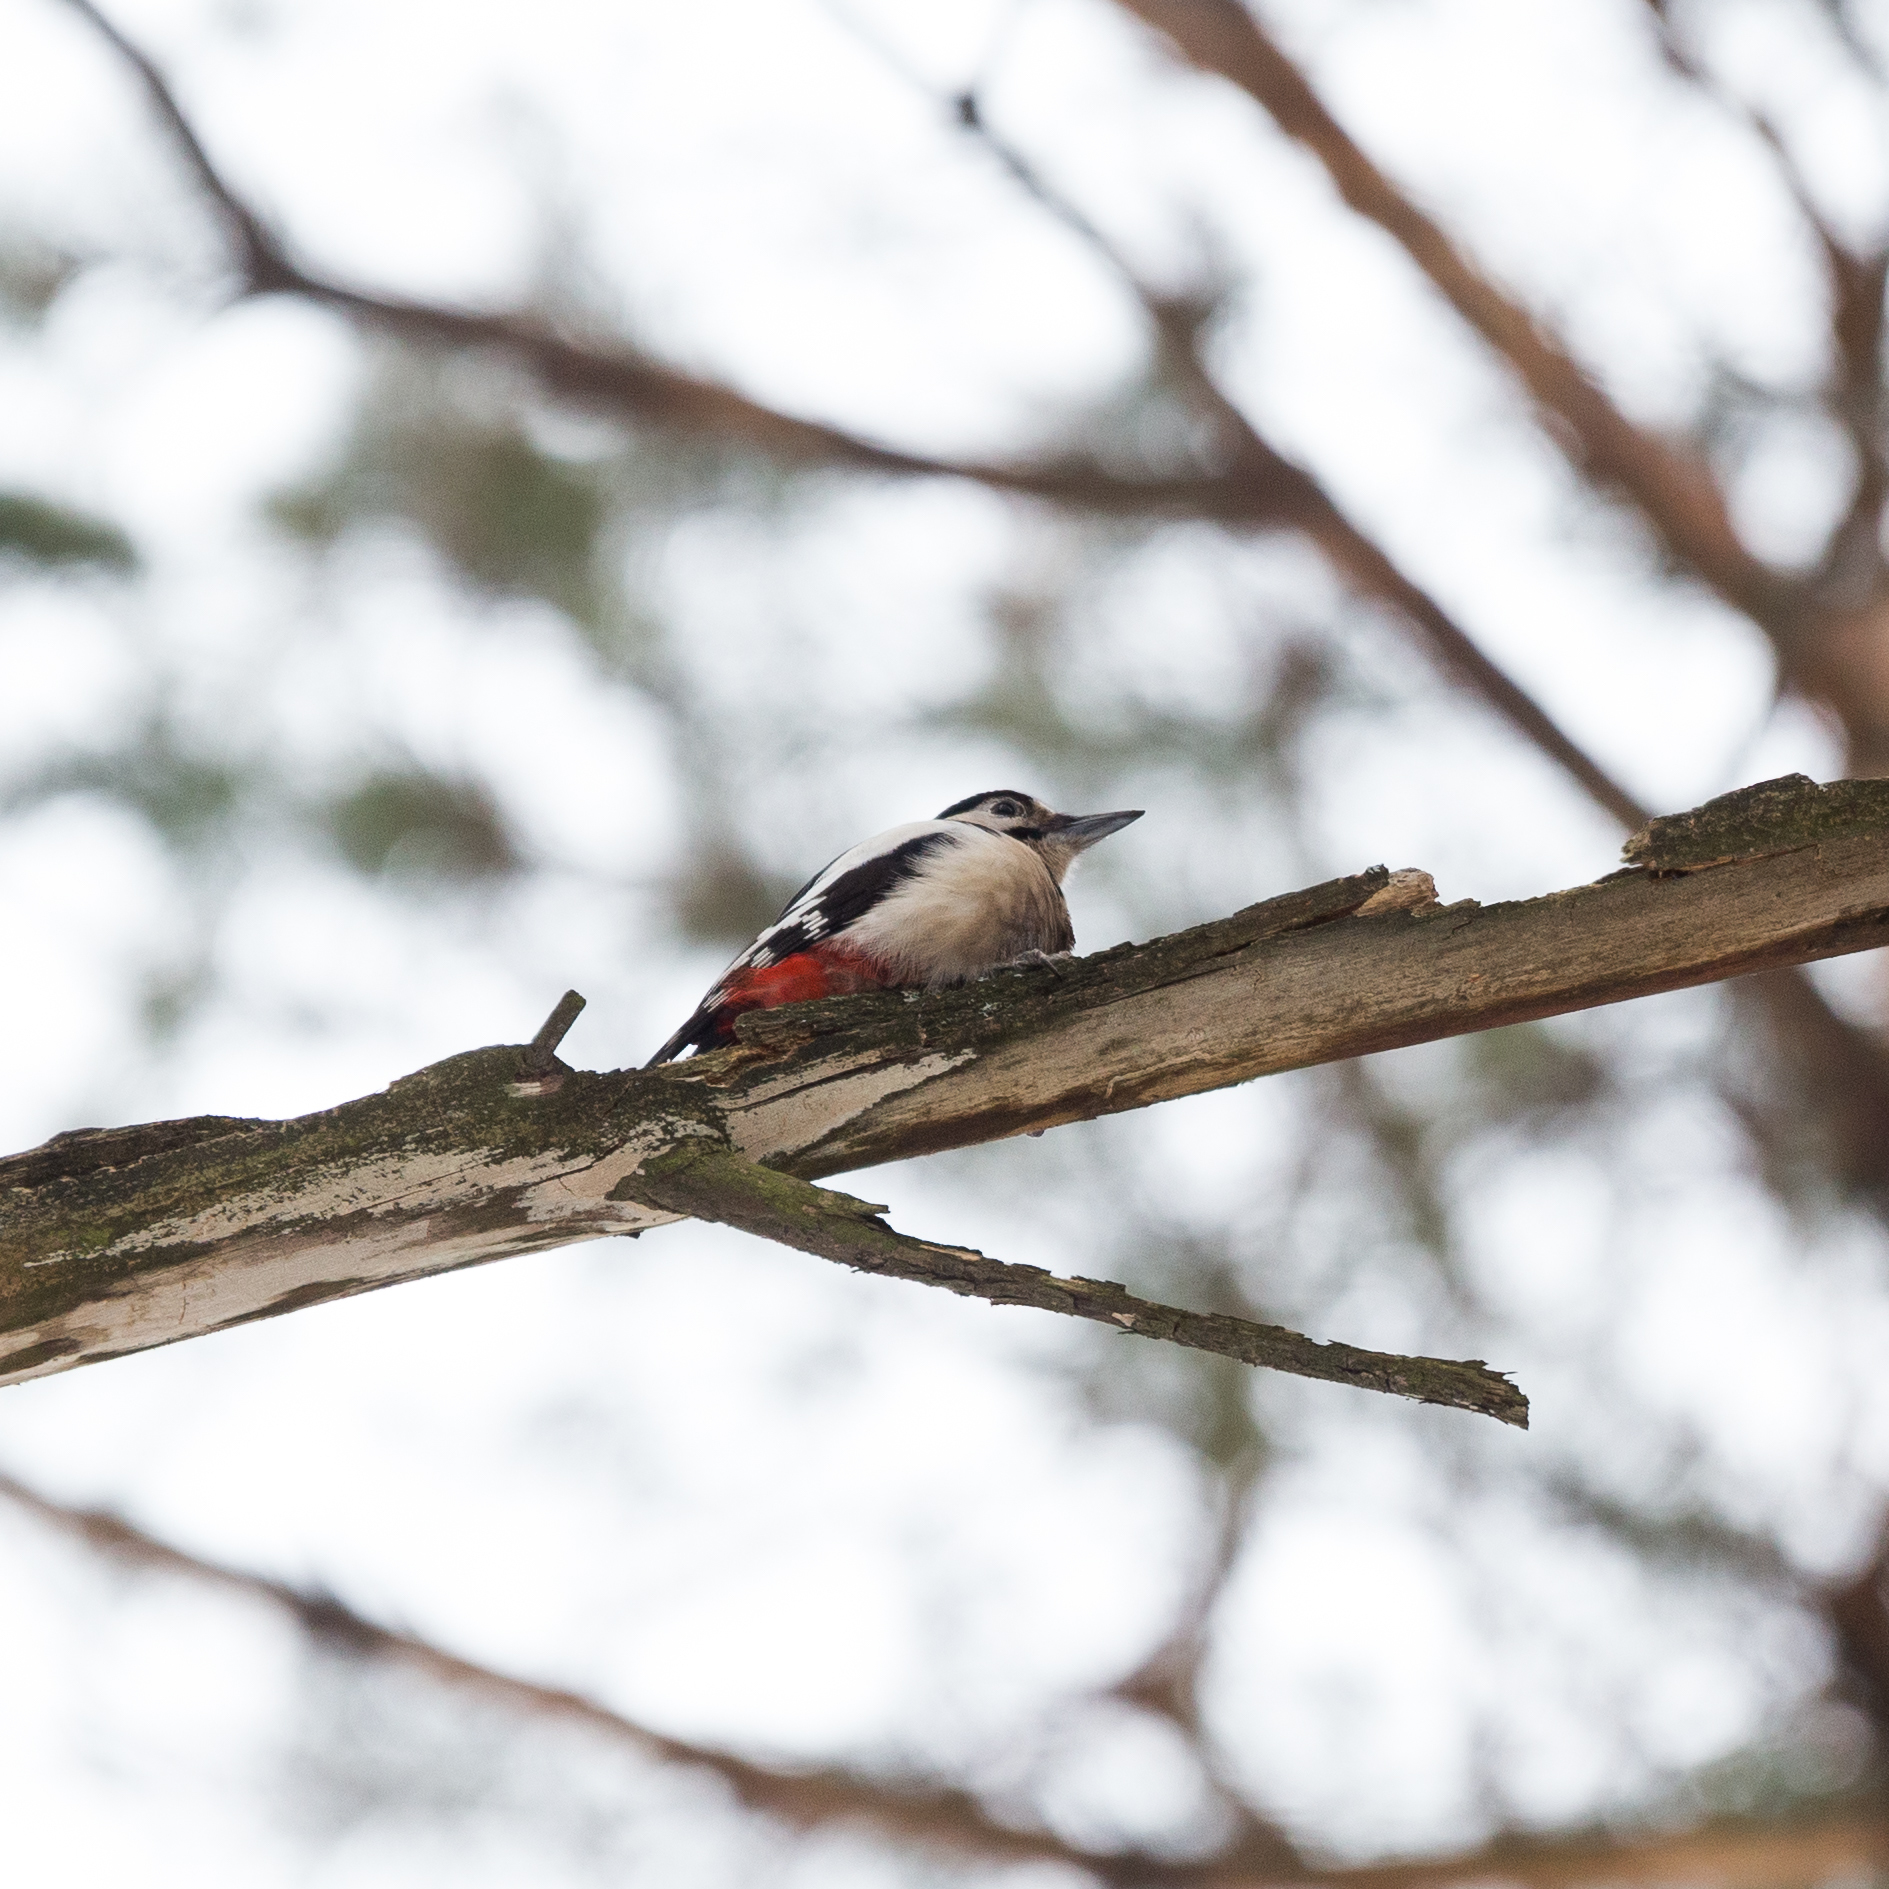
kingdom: Animalia
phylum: Chordata
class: Aves
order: Piciformes
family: Picidae
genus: Dendrocopos
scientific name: Dendrocopos major
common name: Great spotted woodpecker
